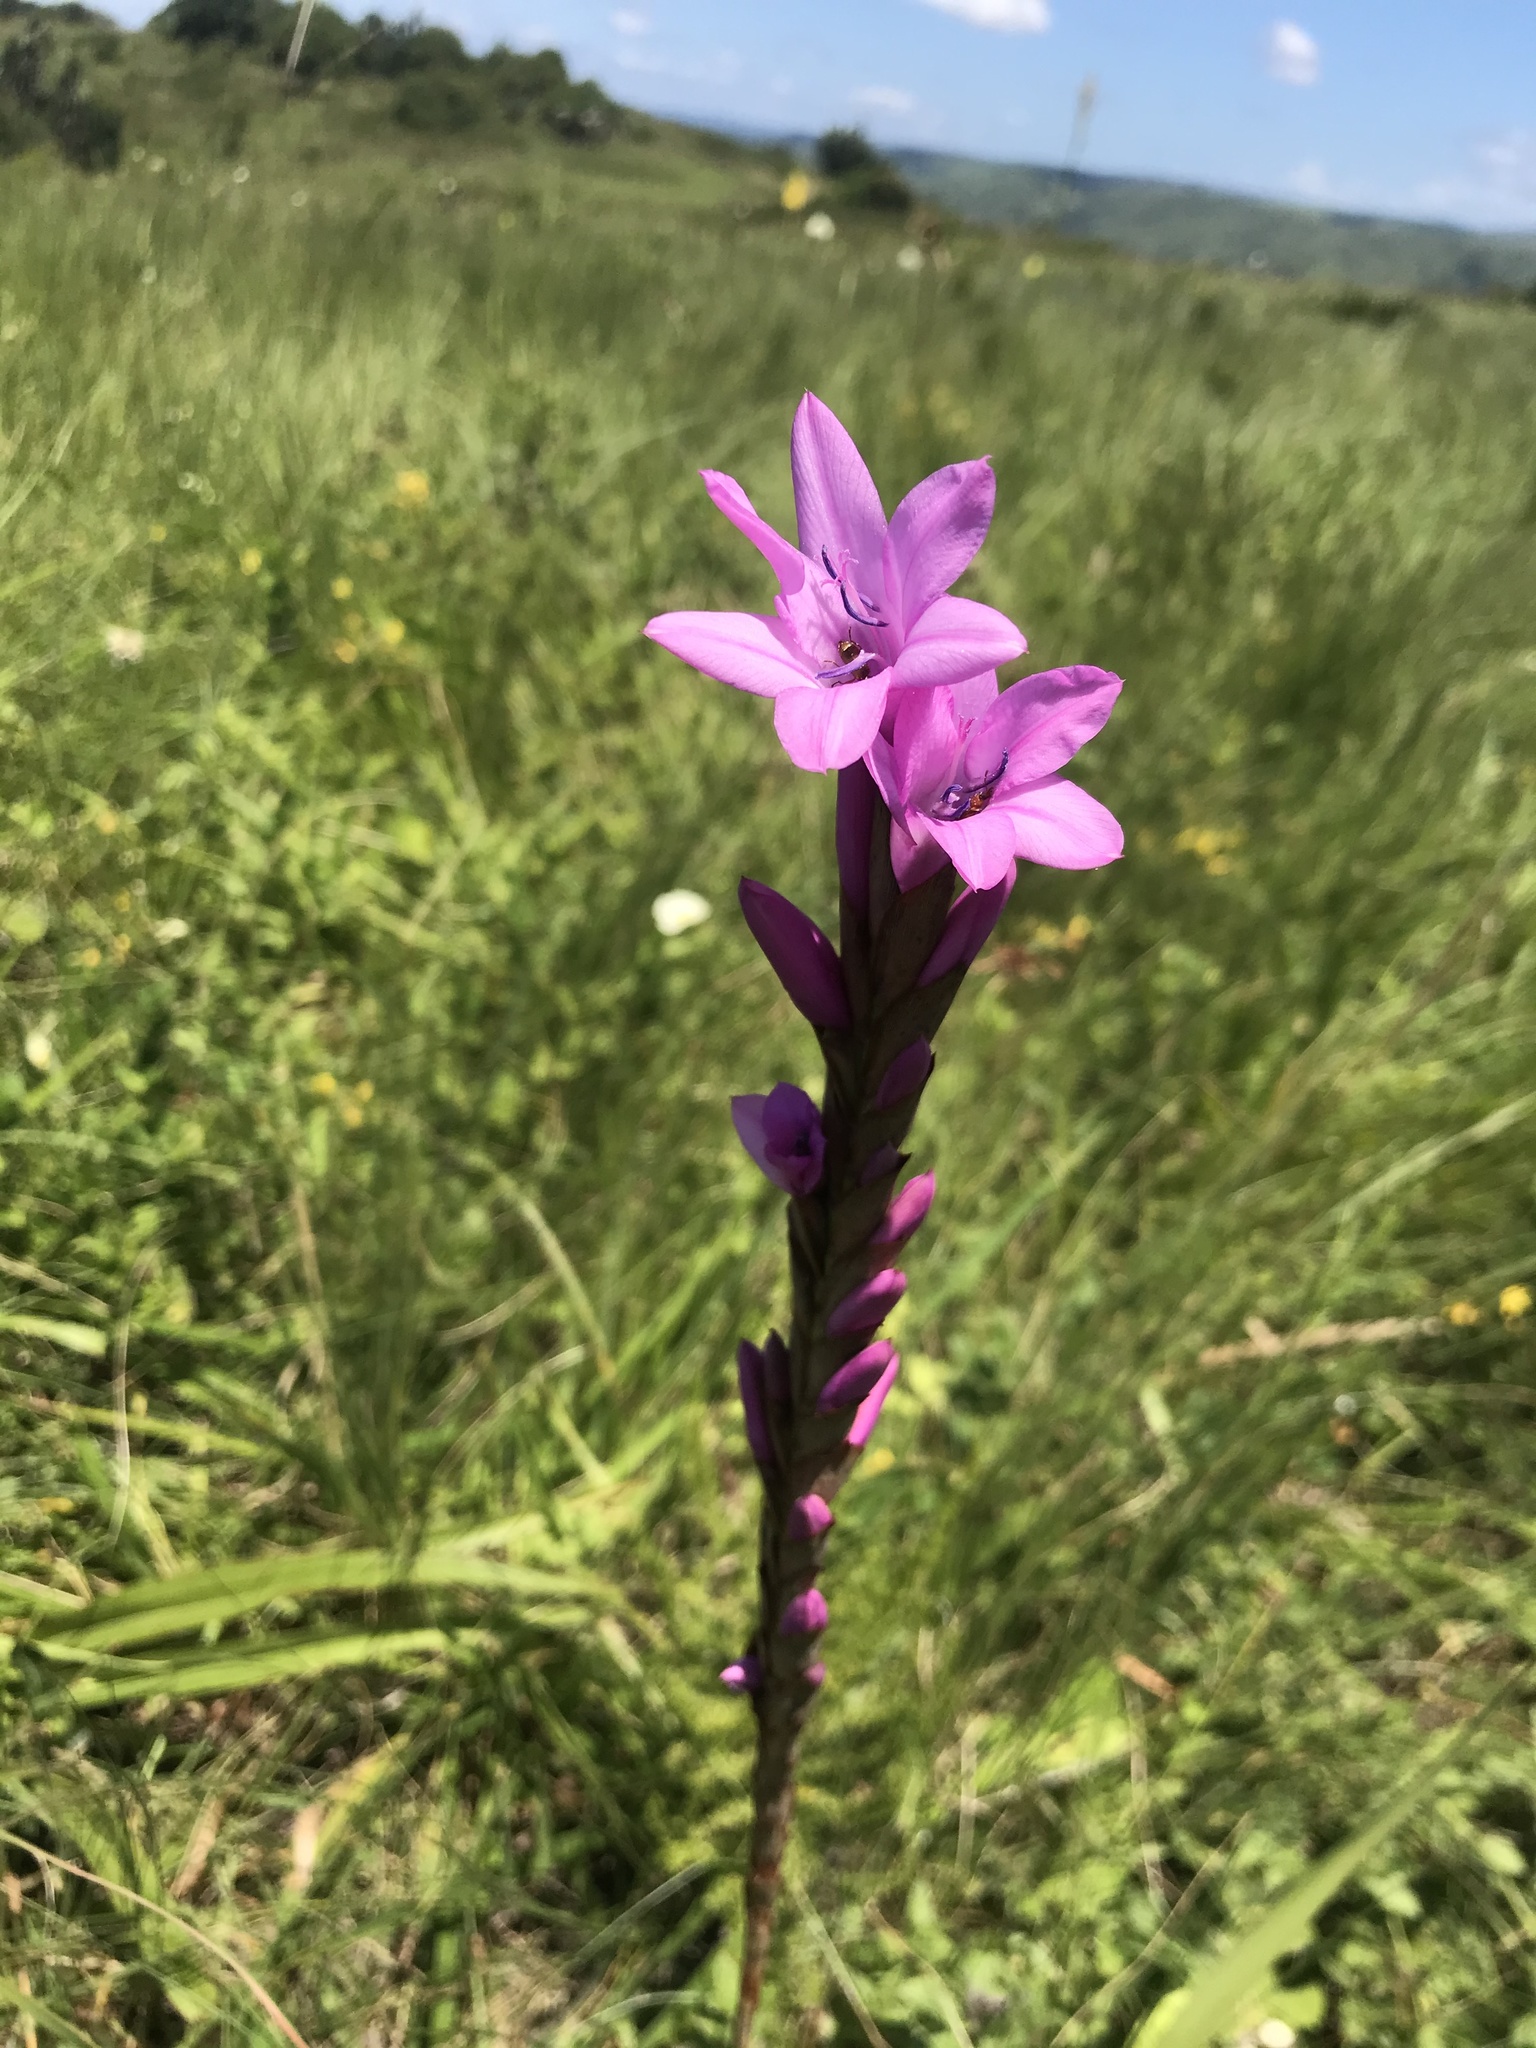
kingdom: Plantae
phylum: Tracheophyta
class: Liliopsida
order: Asparagales
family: Iridaceae
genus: Watsonia
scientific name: Watsonia densiflora
